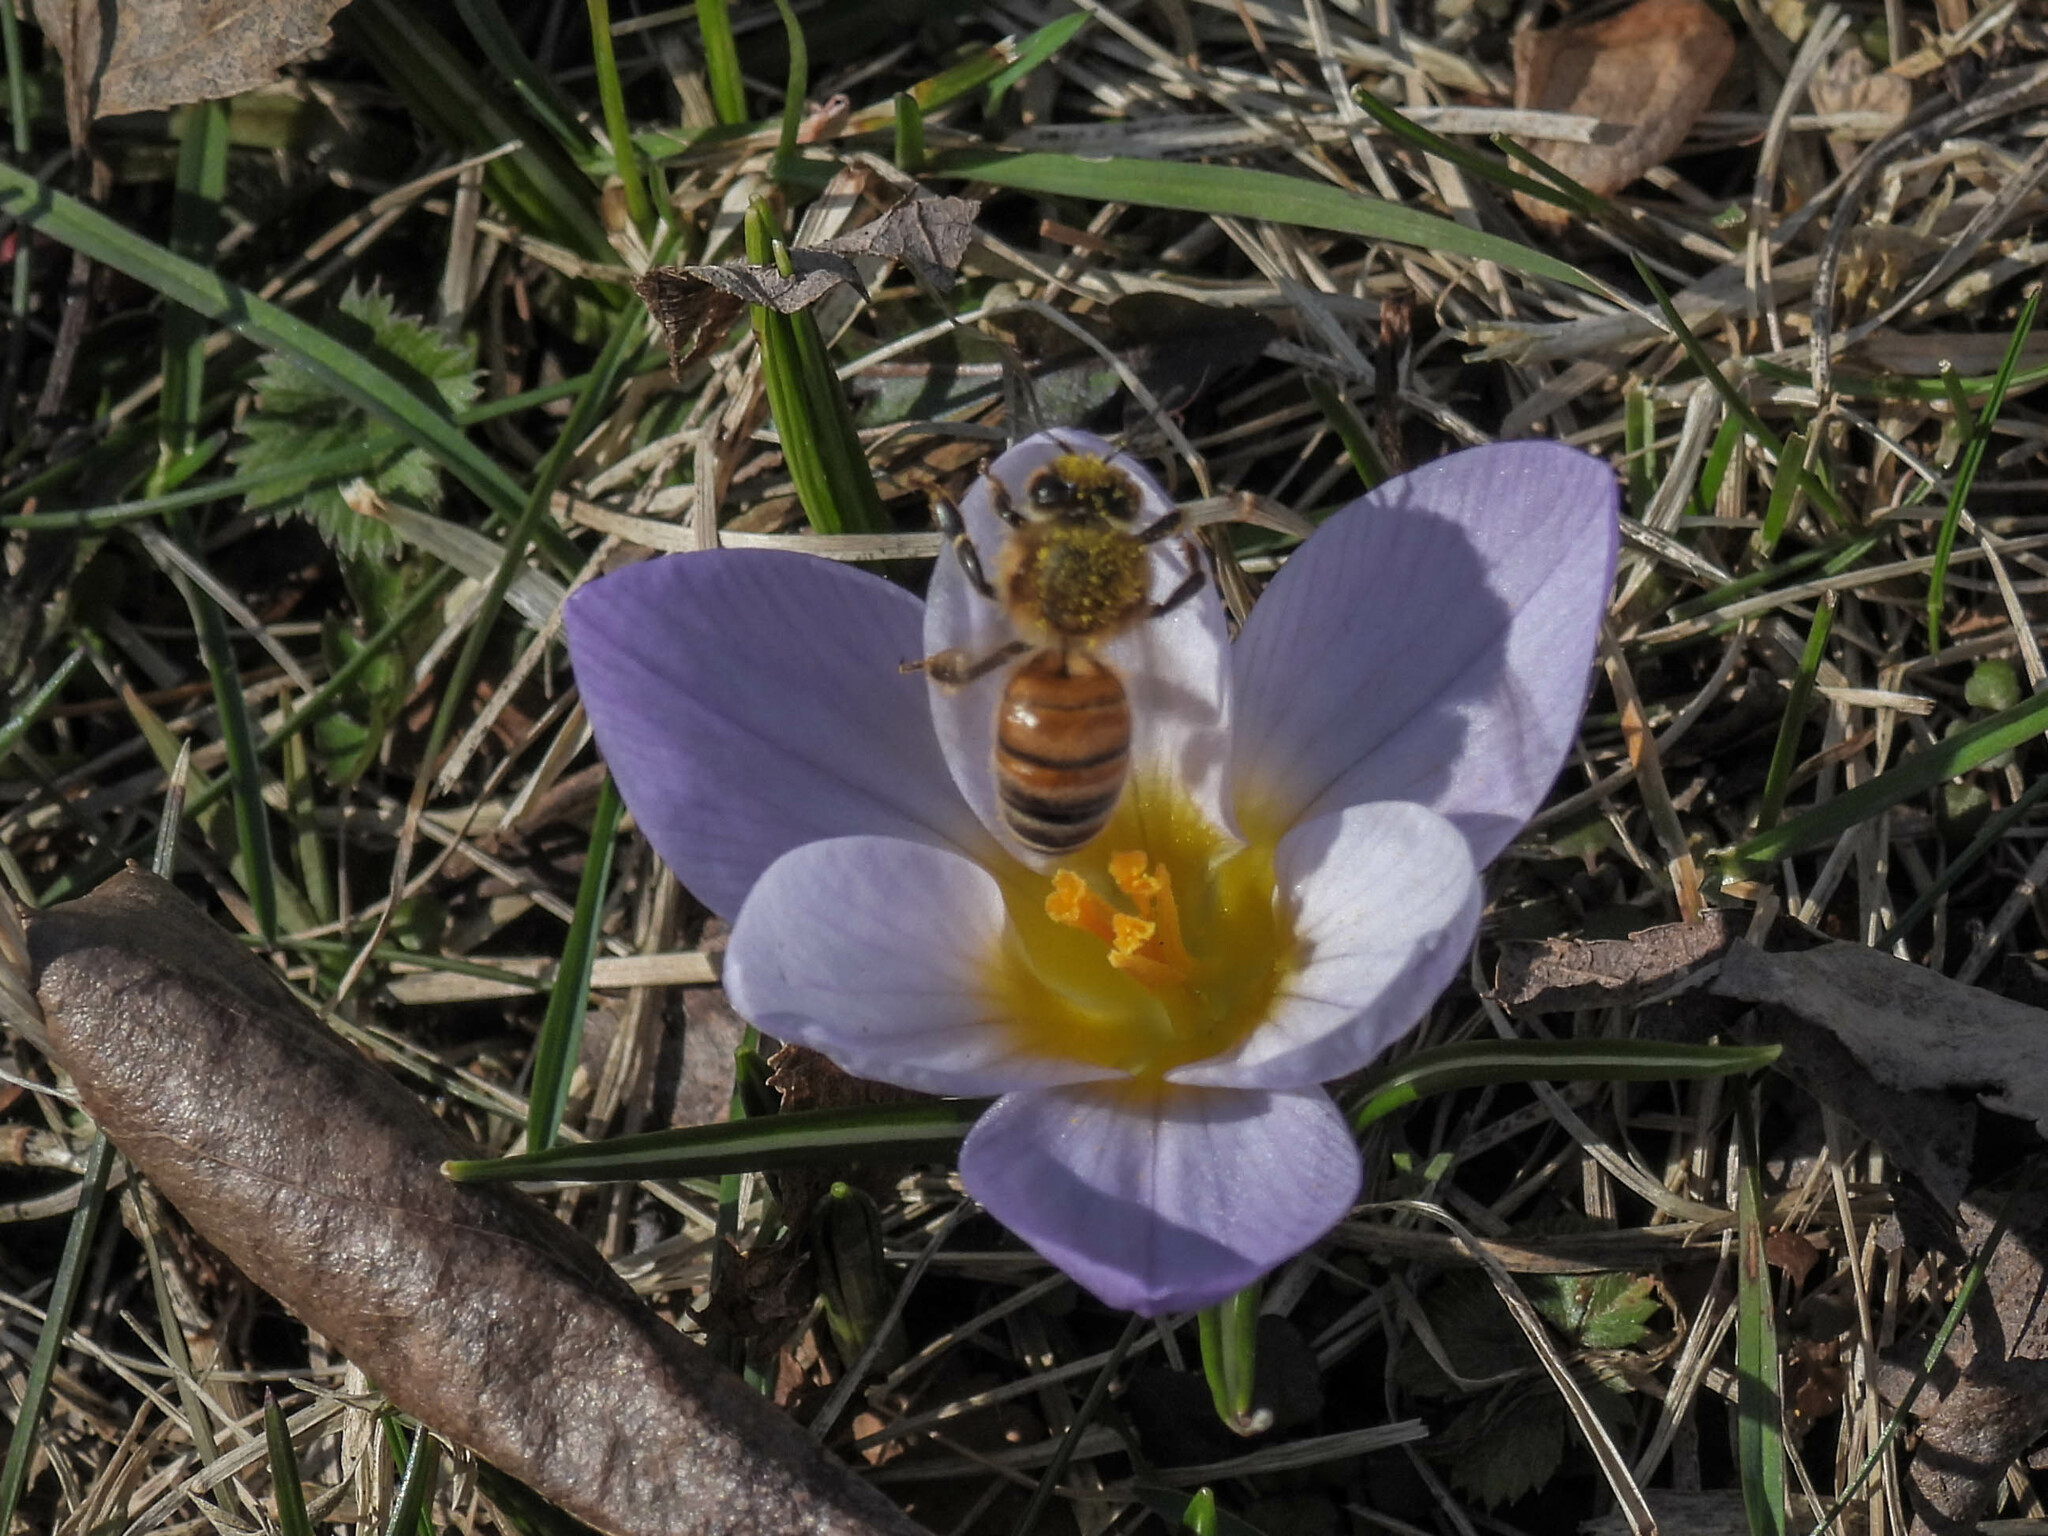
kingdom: Animalia
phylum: Arthropoda
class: Insecta
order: Hymenoptera
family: Apidae
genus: Apis
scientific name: Apis mellifera
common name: Honey bee
